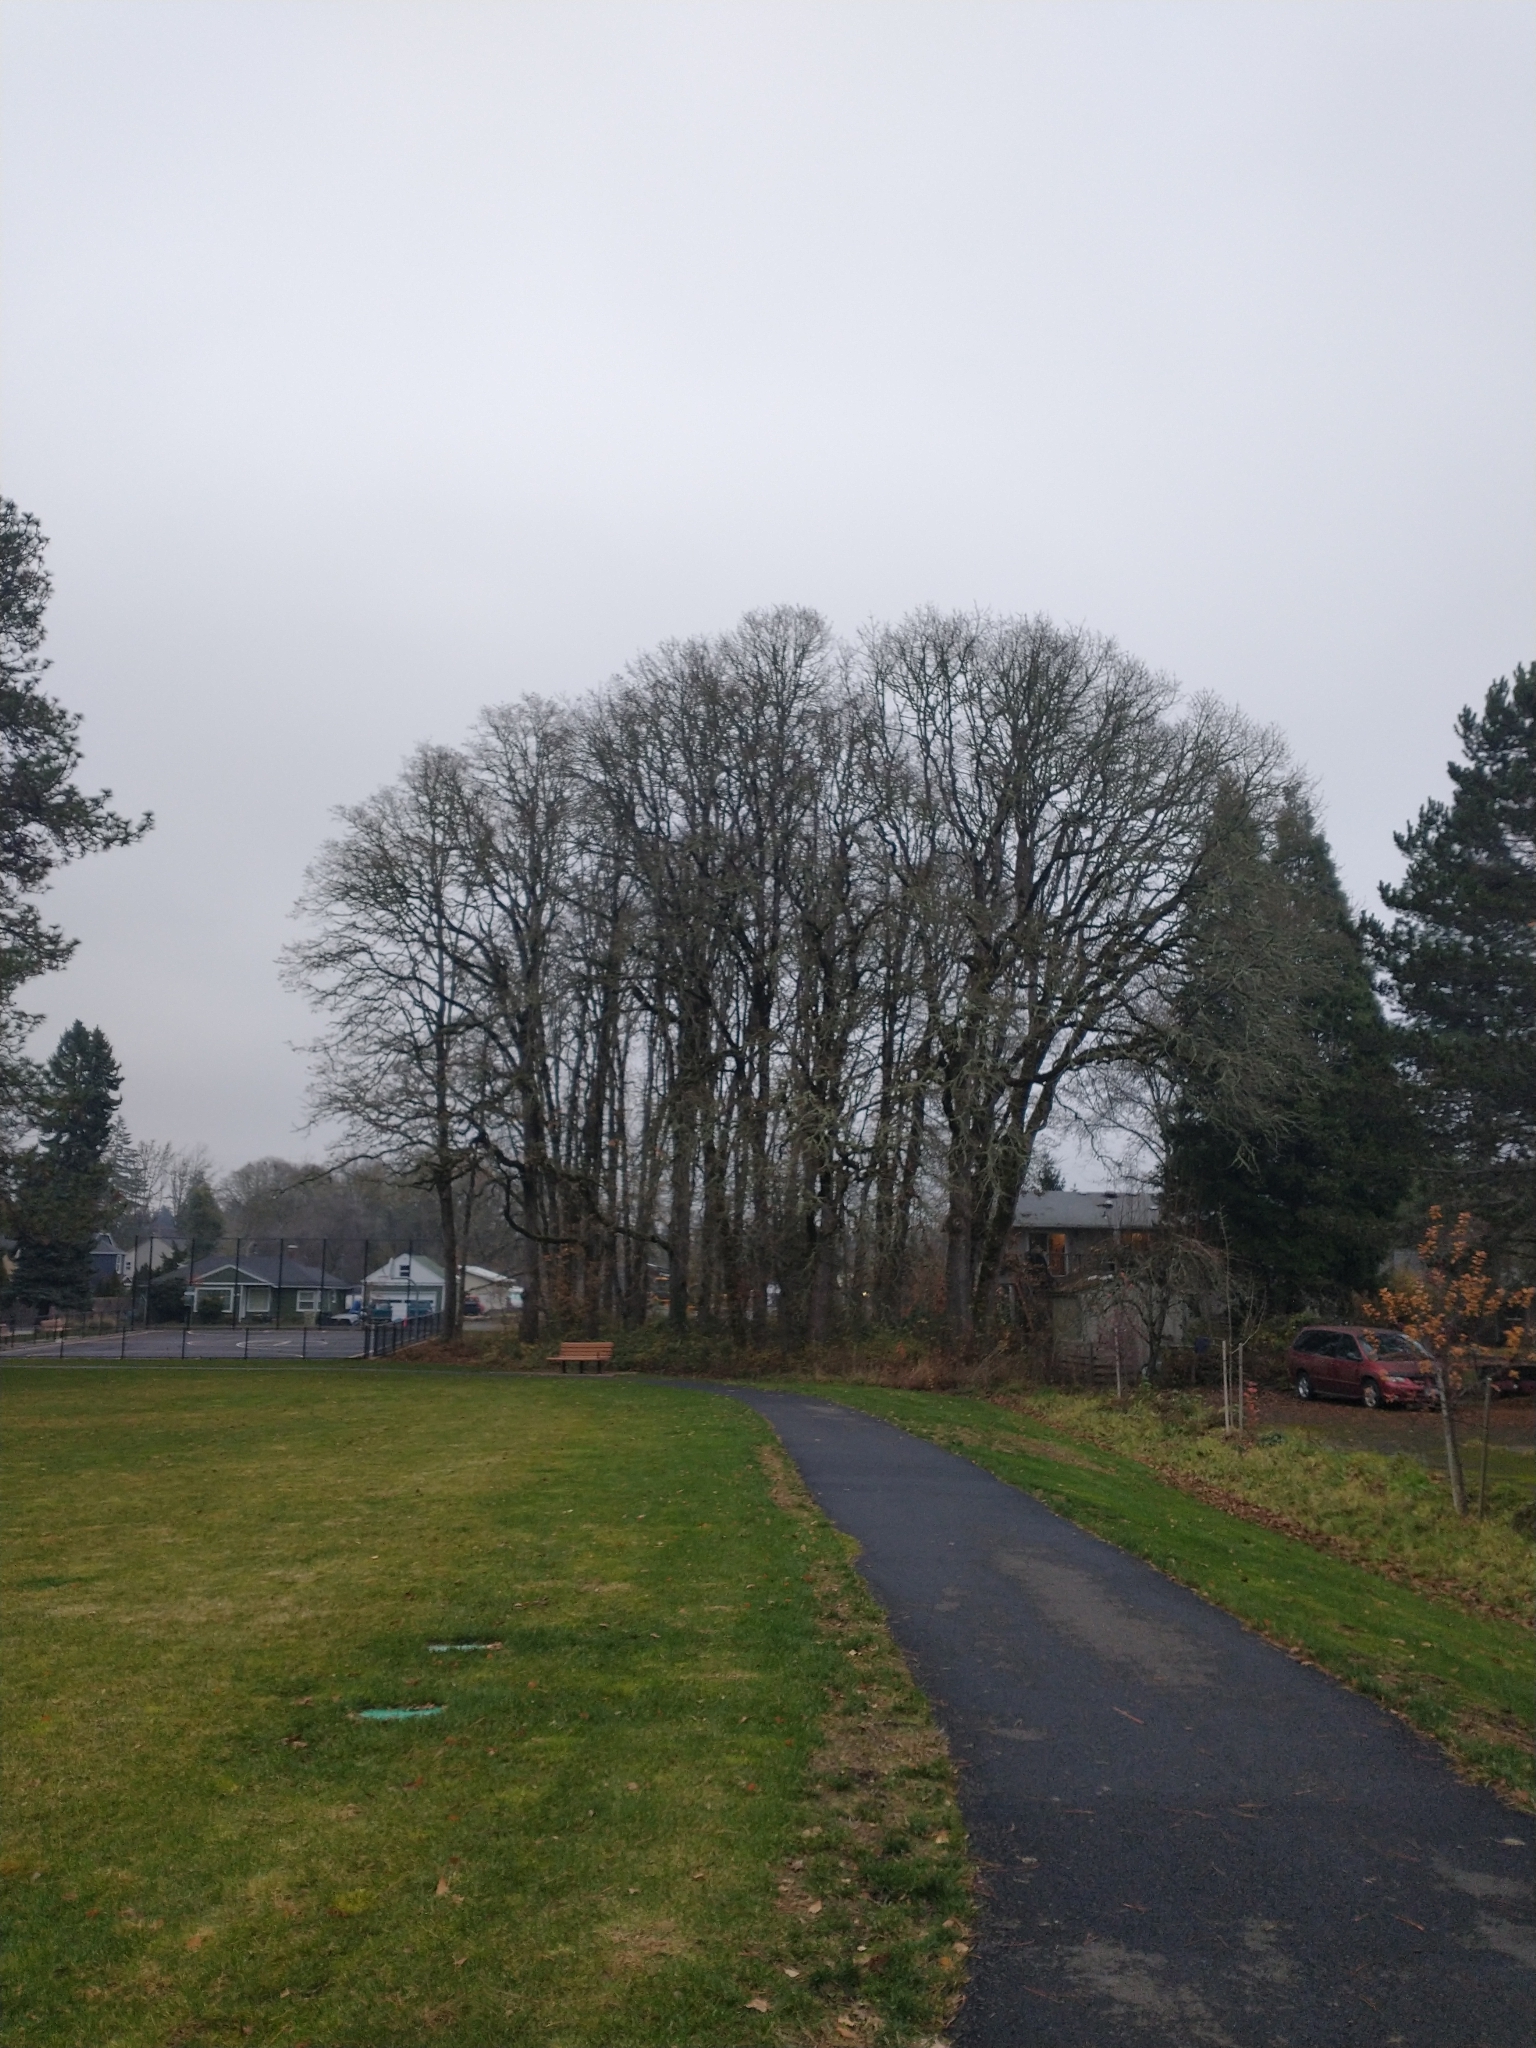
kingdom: Plantae
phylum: Tracheophyta
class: Magnoliopsida
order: Fagales
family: Fagaceae
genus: Quercus
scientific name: Quercus garryana
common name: Garry oak
